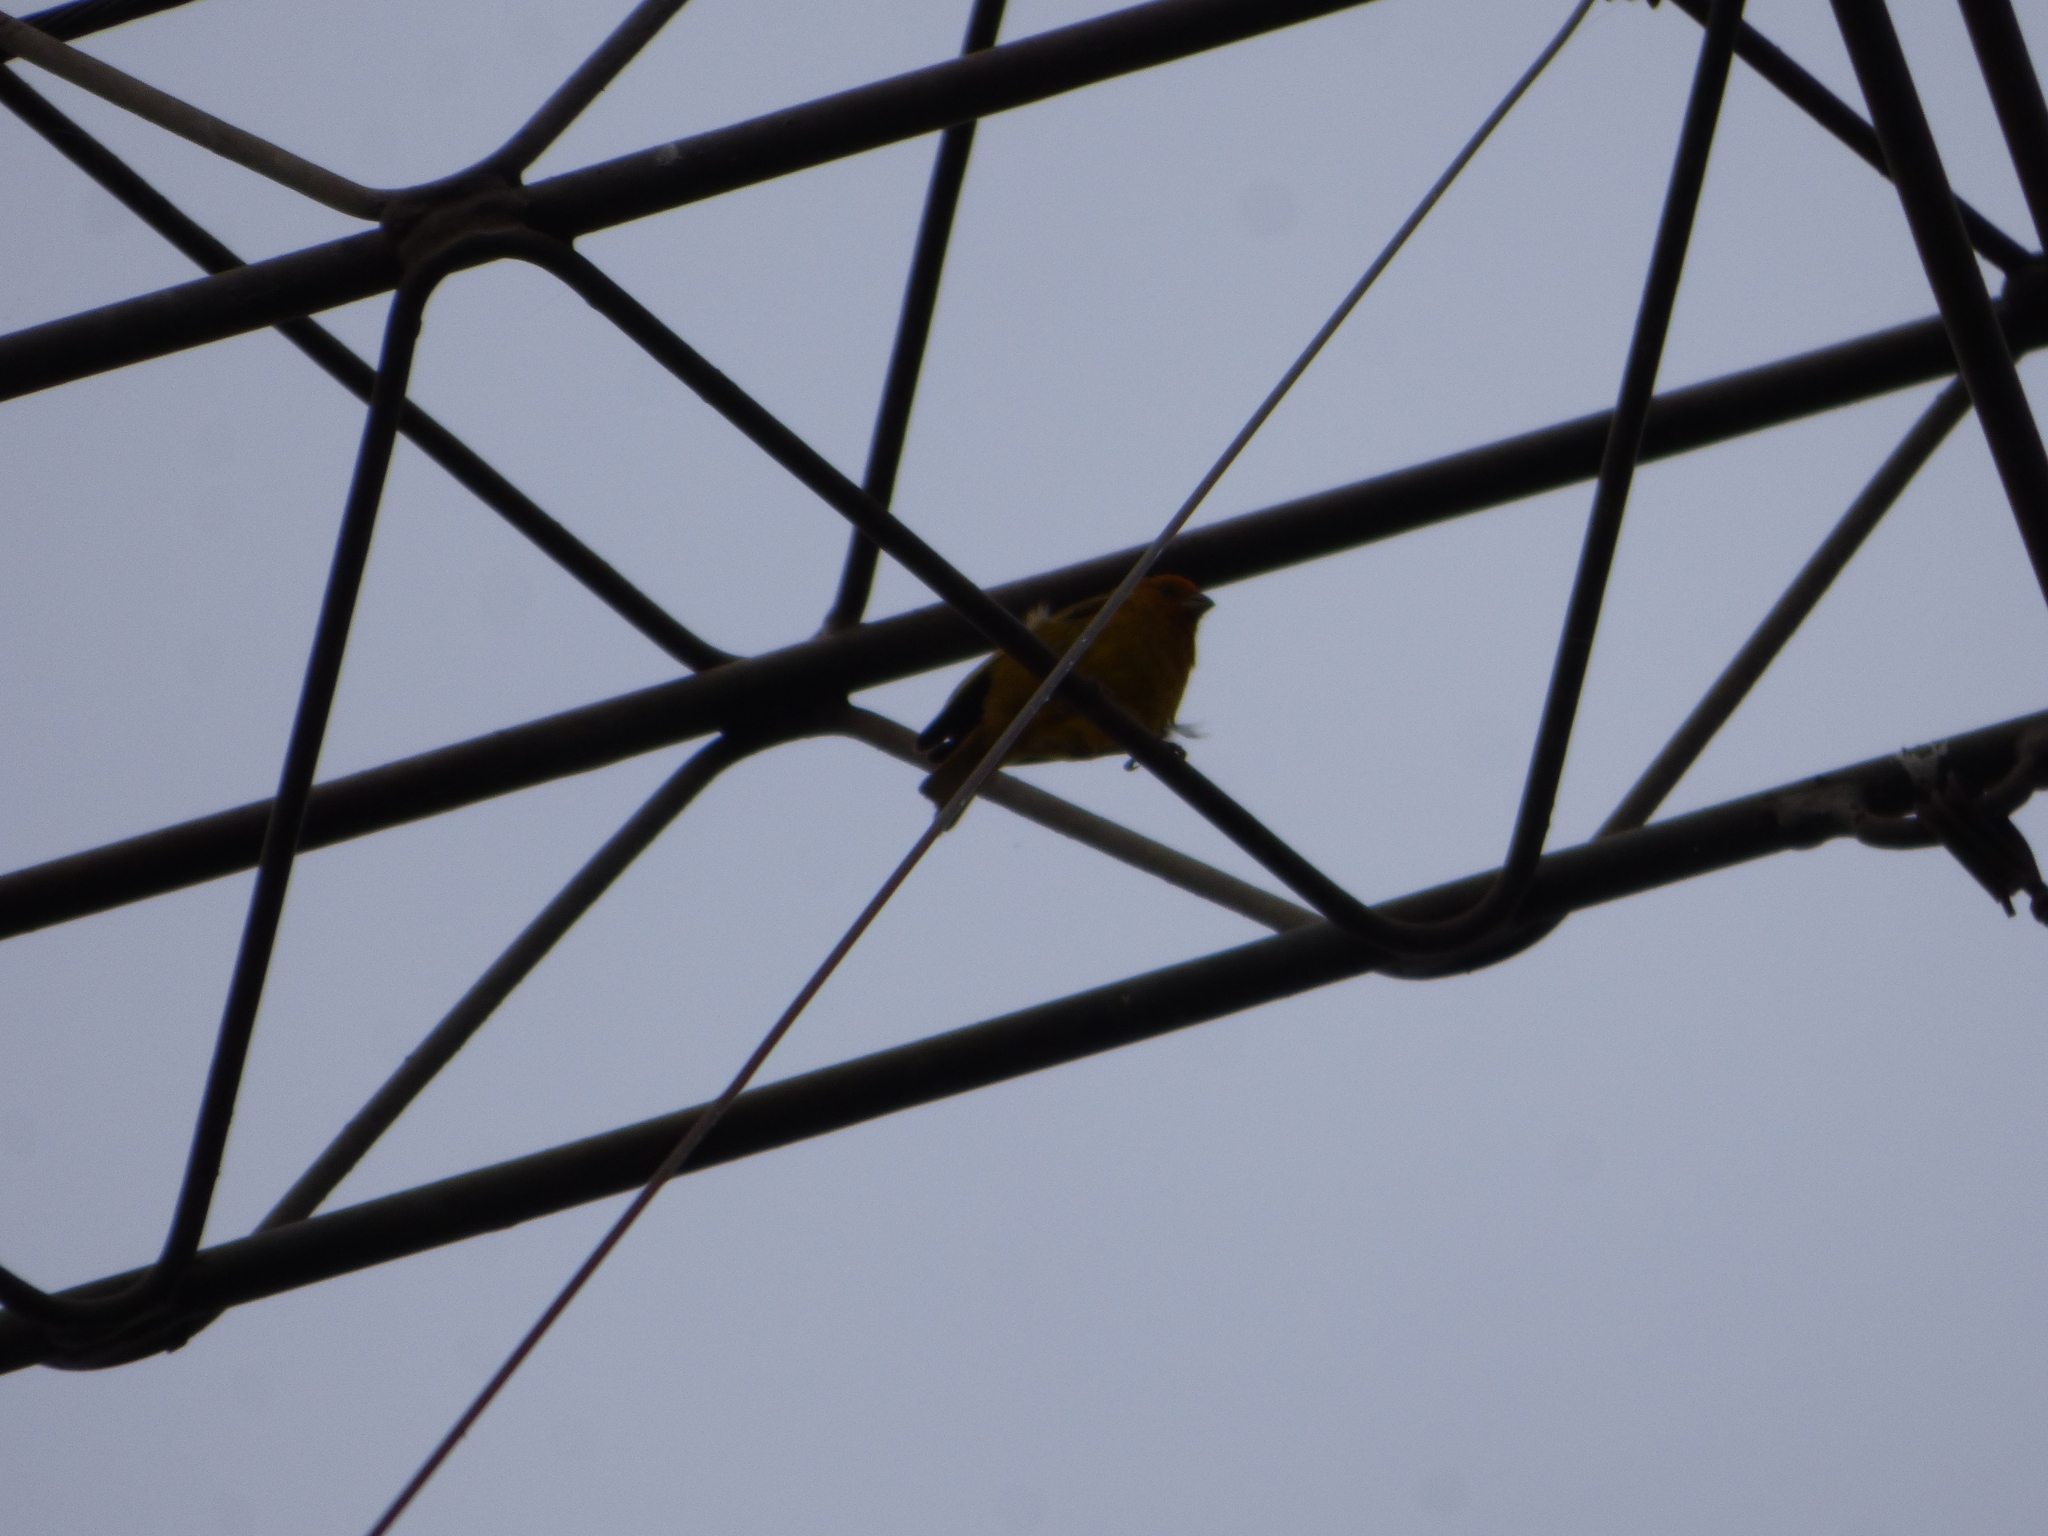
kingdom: Animalia
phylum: Chordata
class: Aves
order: Passeriformes
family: Thraupidae
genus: Sicalis
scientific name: Sicalis flaveola
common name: Saffron finch
